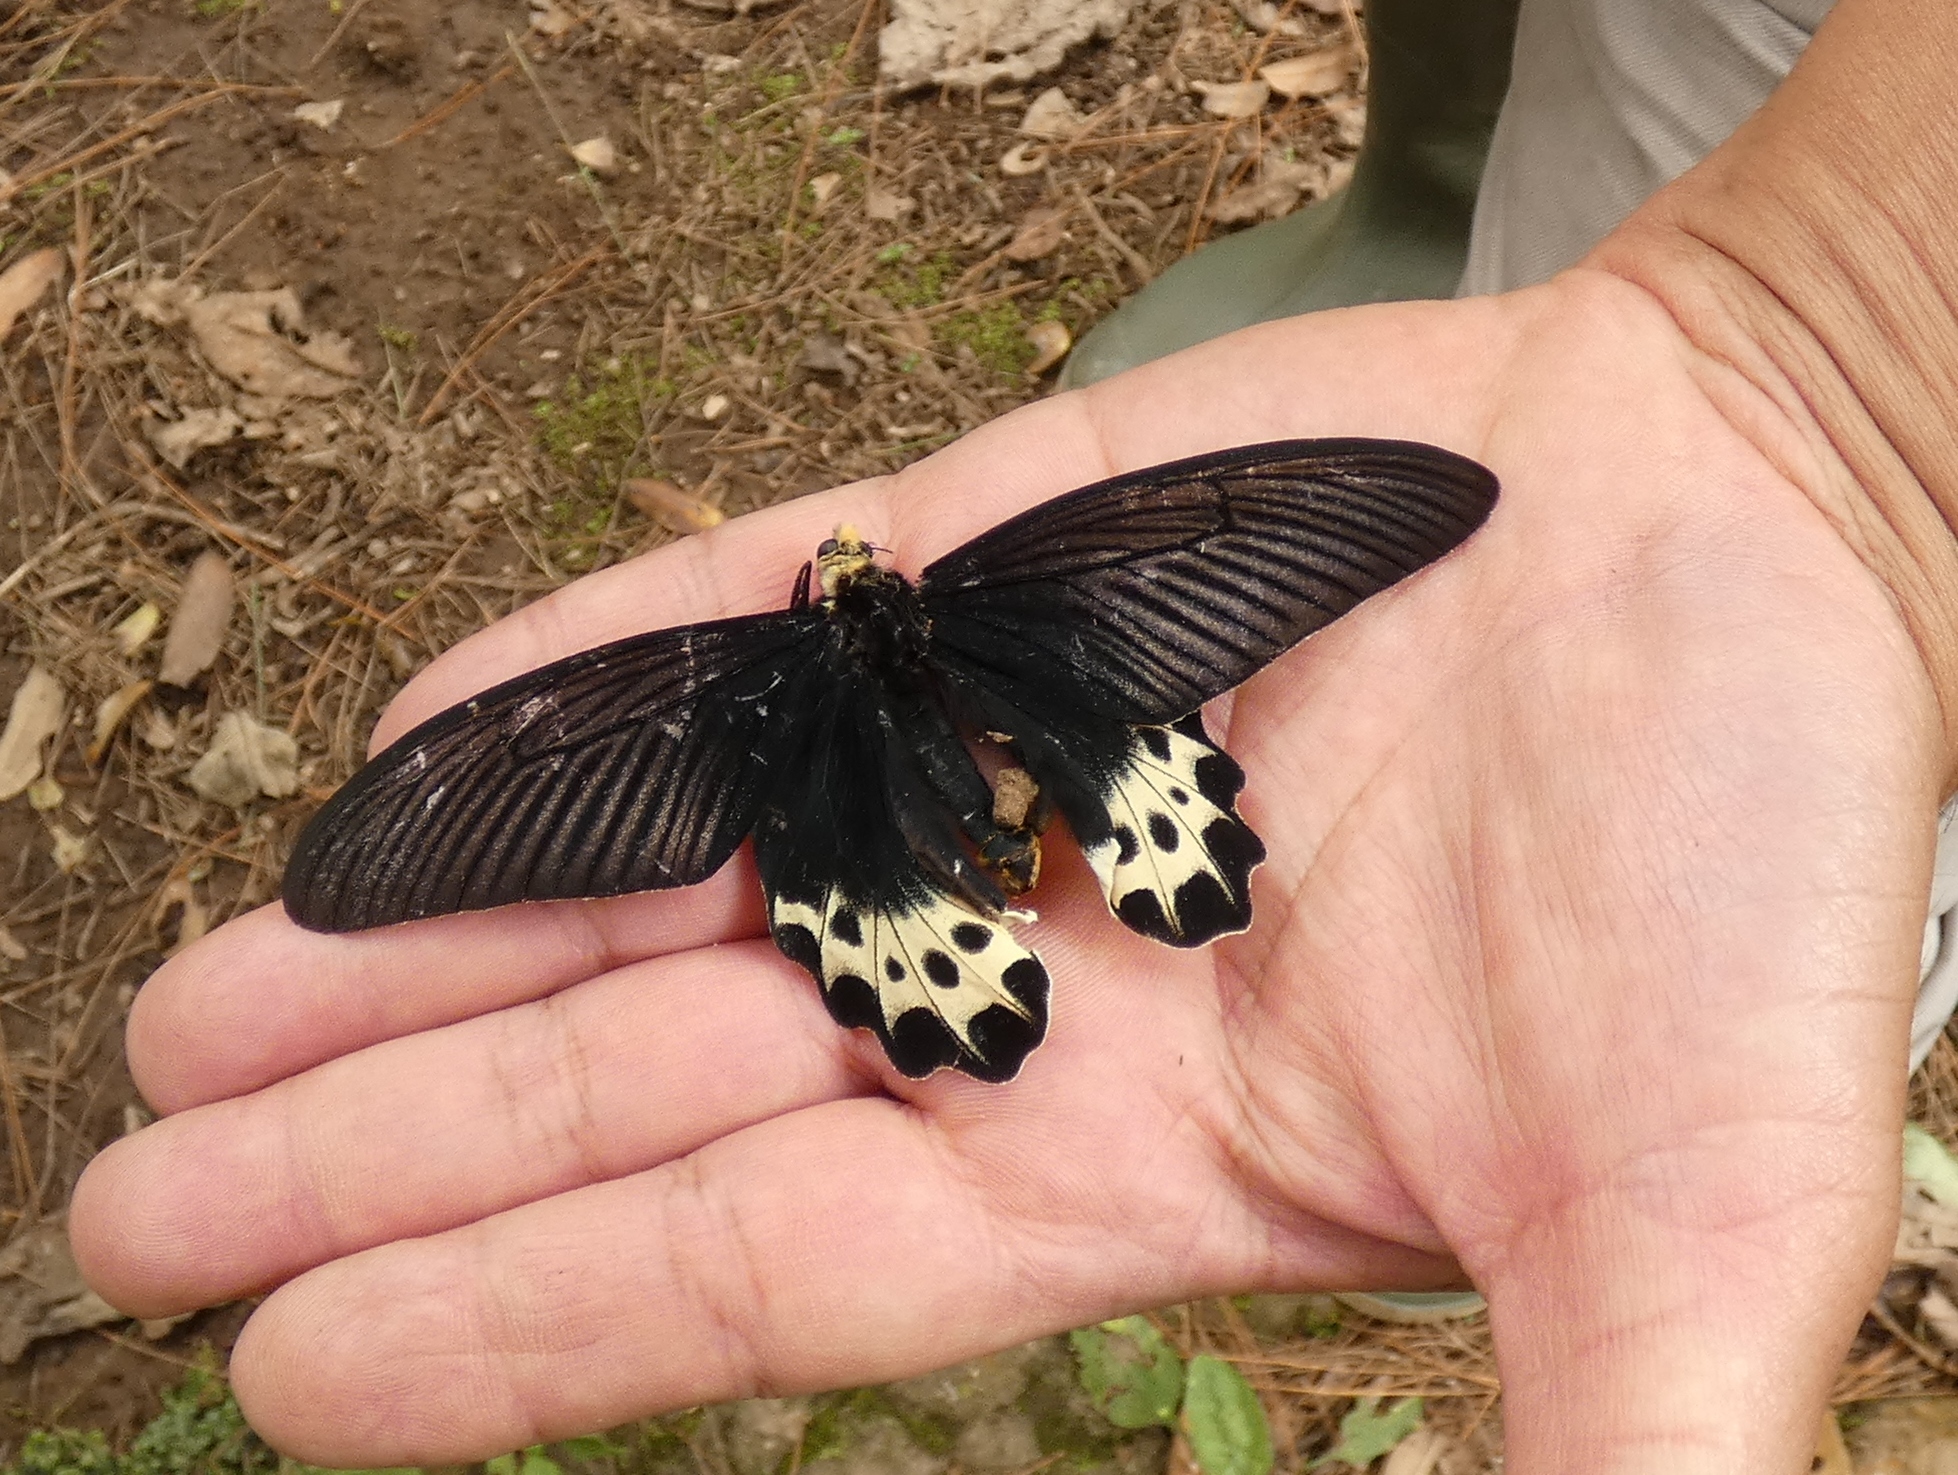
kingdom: Animalia
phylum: Arthropoda
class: Insecta
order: Lepidoptera
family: Papilionidae
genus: Atrophaneura
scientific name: Atrophaneura priapus
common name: White-head batwing
